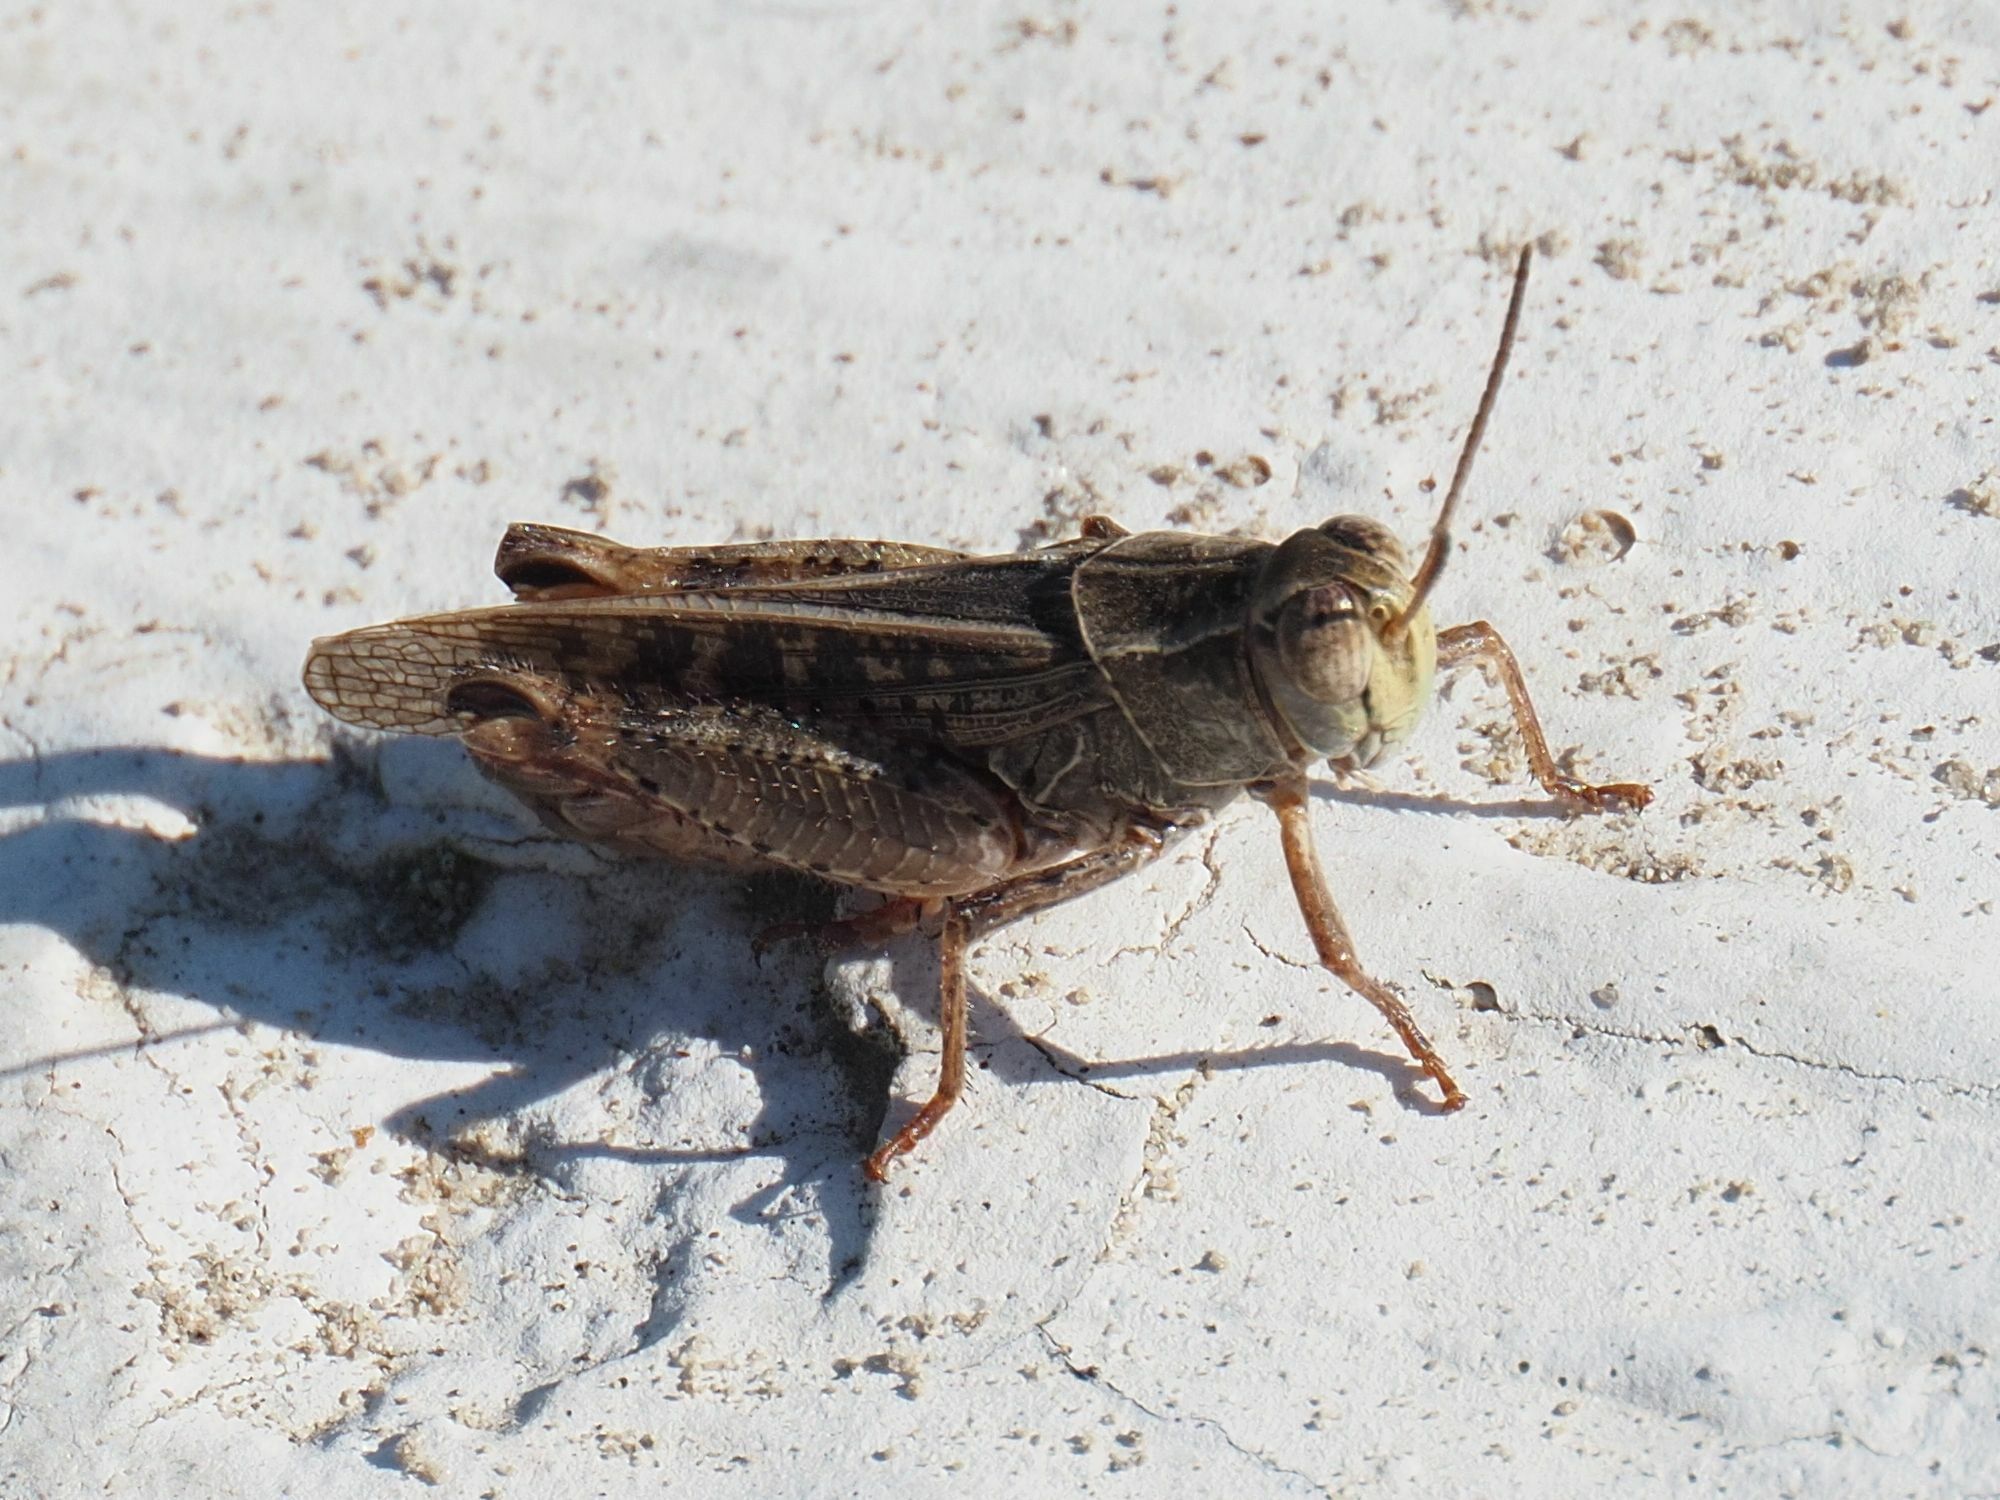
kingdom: Animalia
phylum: Arthropoda
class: Insecta
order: Orthoptera
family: Acrididae
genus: Calliptamus
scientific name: Calliptamus italicus
